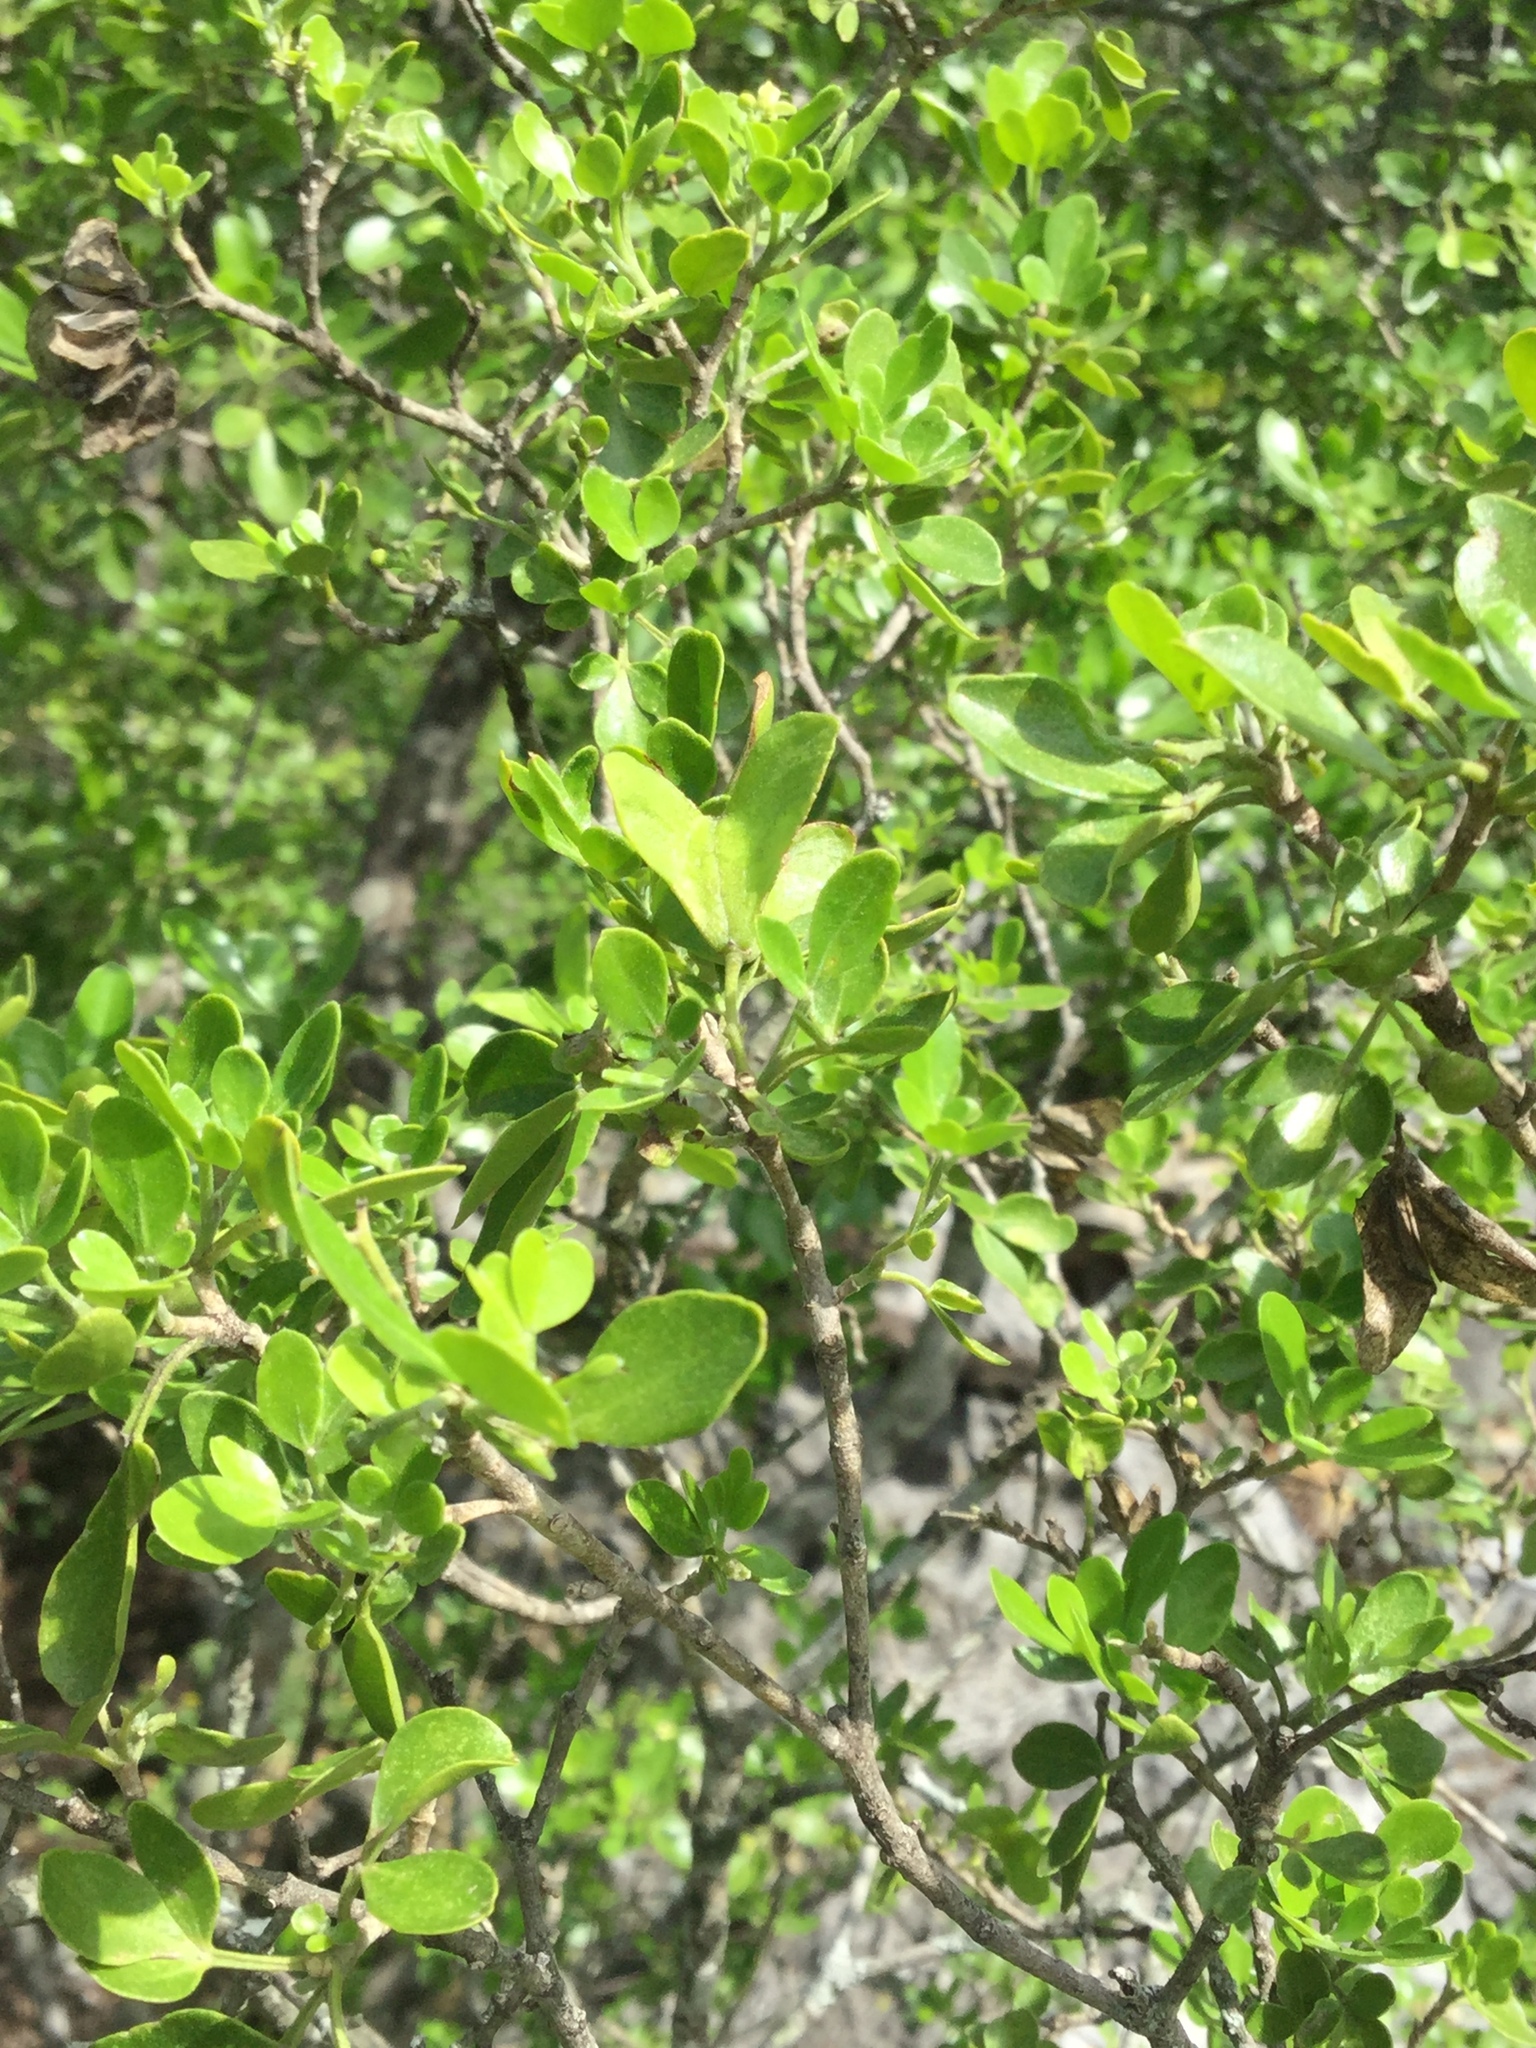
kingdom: Plantae
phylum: Tracheophyta
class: Magnoliopsida
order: Sapindales
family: Rutaceae
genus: Helietta
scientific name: Helietta parvifolia
